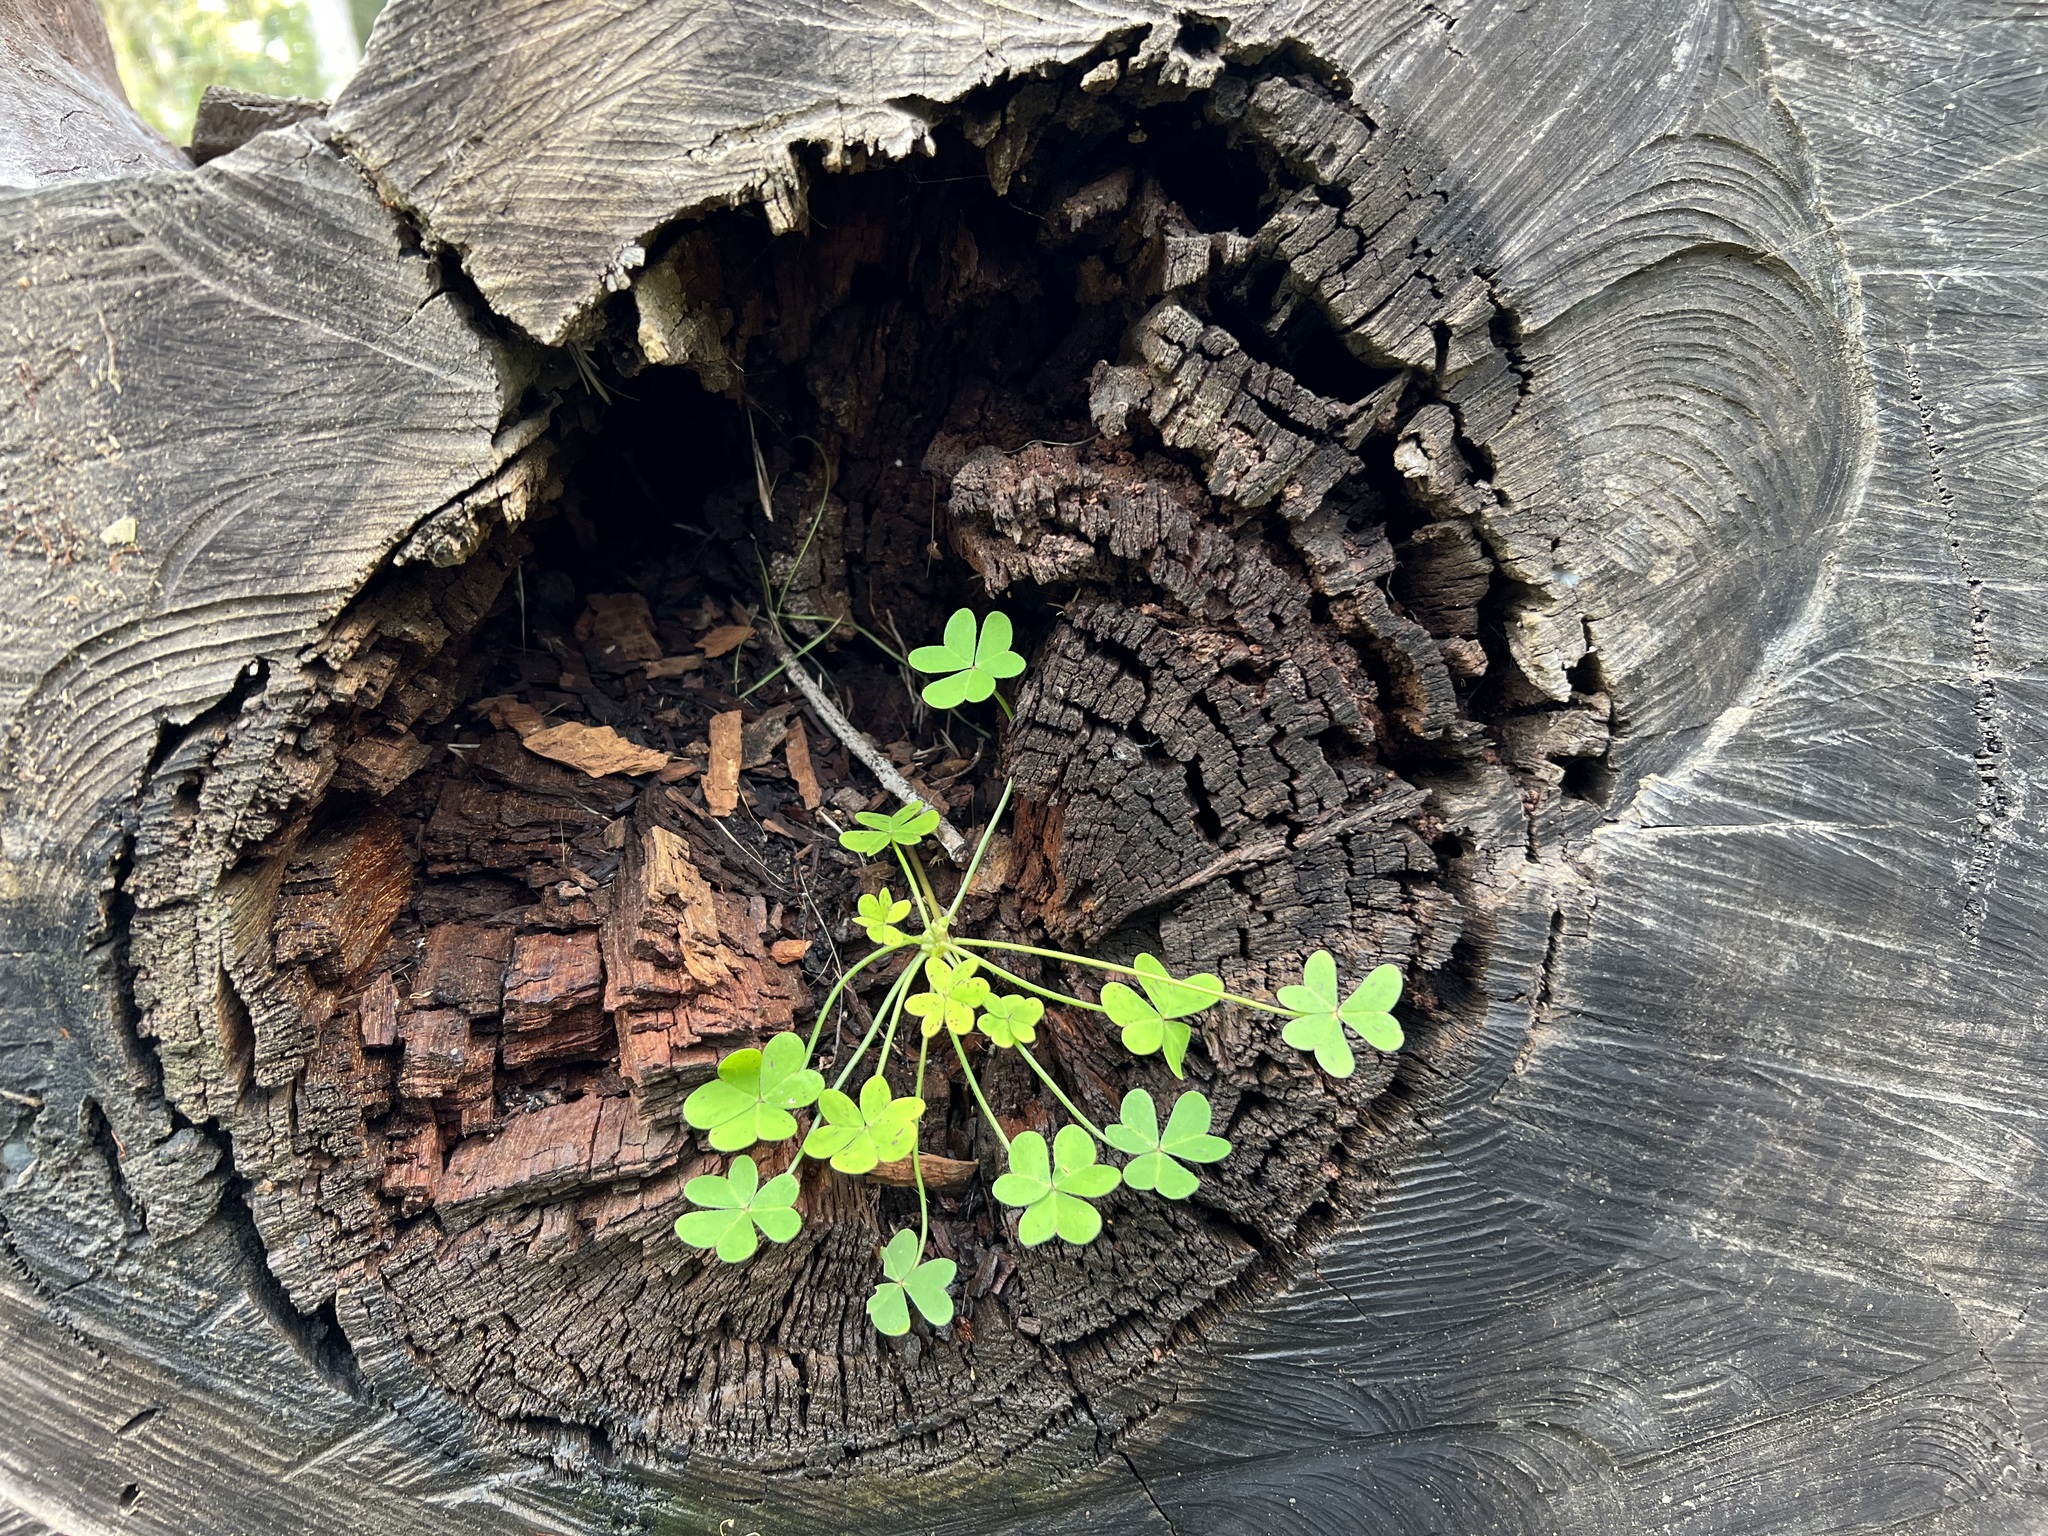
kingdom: Plantae
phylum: Tracheophyta
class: Magnoliopsida
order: Oxalidales
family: Oxalidaceae
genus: Oxalis
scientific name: Oxalis pes-caprae
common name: Bermuda-buttercup
